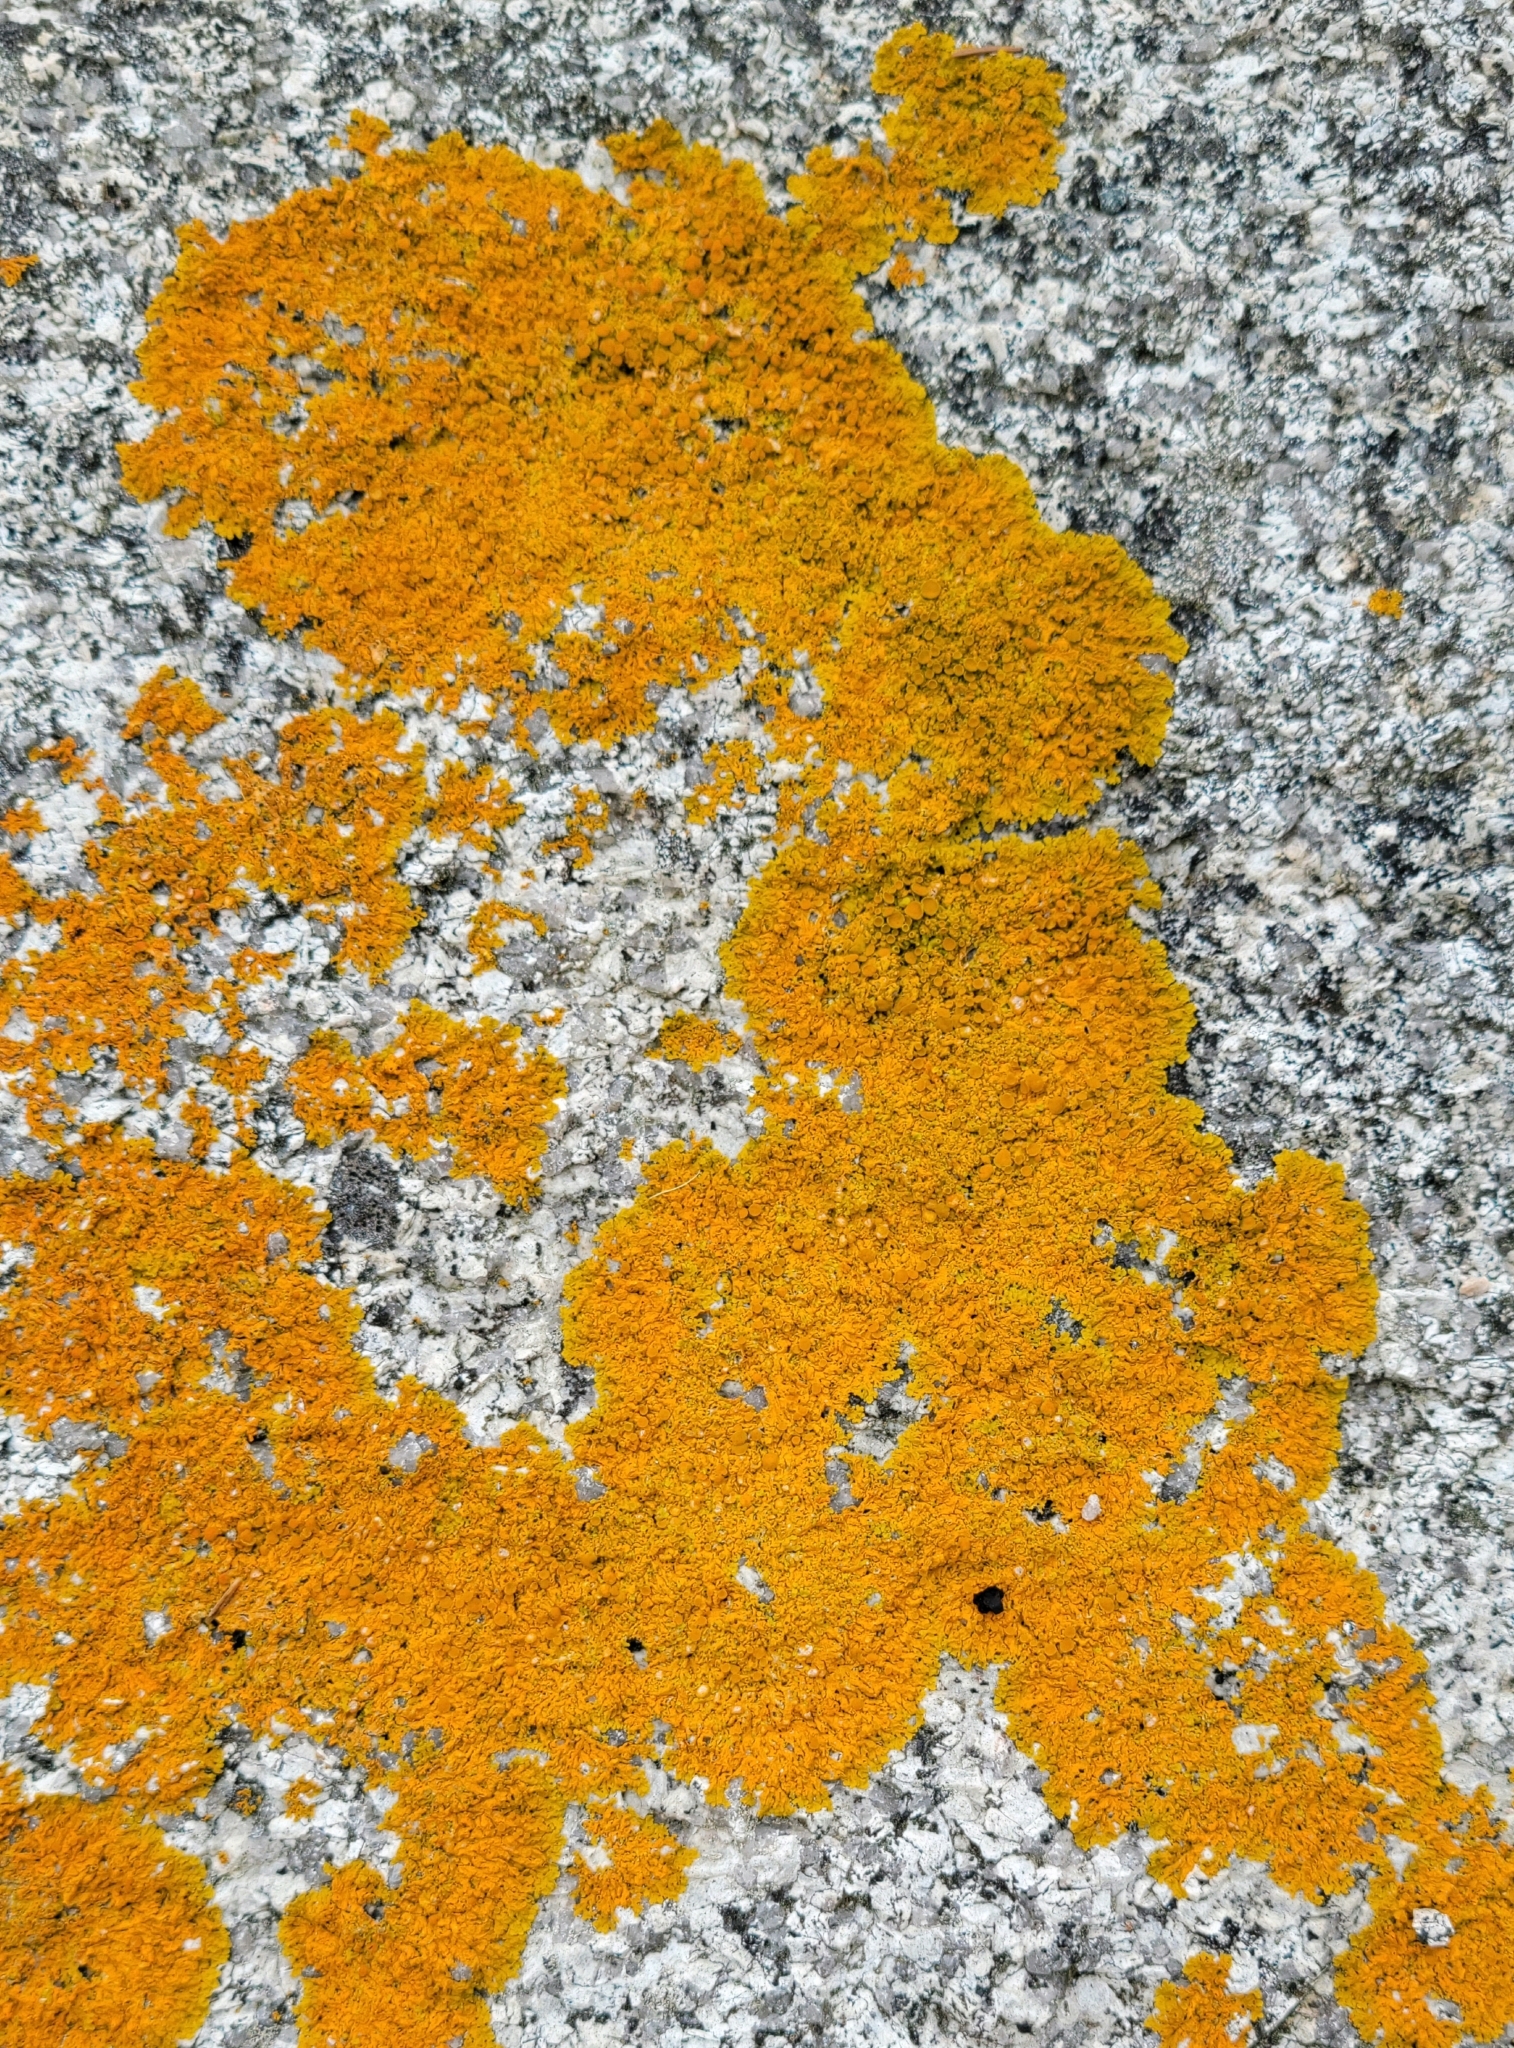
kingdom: Fungi
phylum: Ascomycota
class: Lecanoromycetes
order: Teloschistales
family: Teloschistaceae
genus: Xanthoria
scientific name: Xanthoria parietina
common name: Common orange lichen
